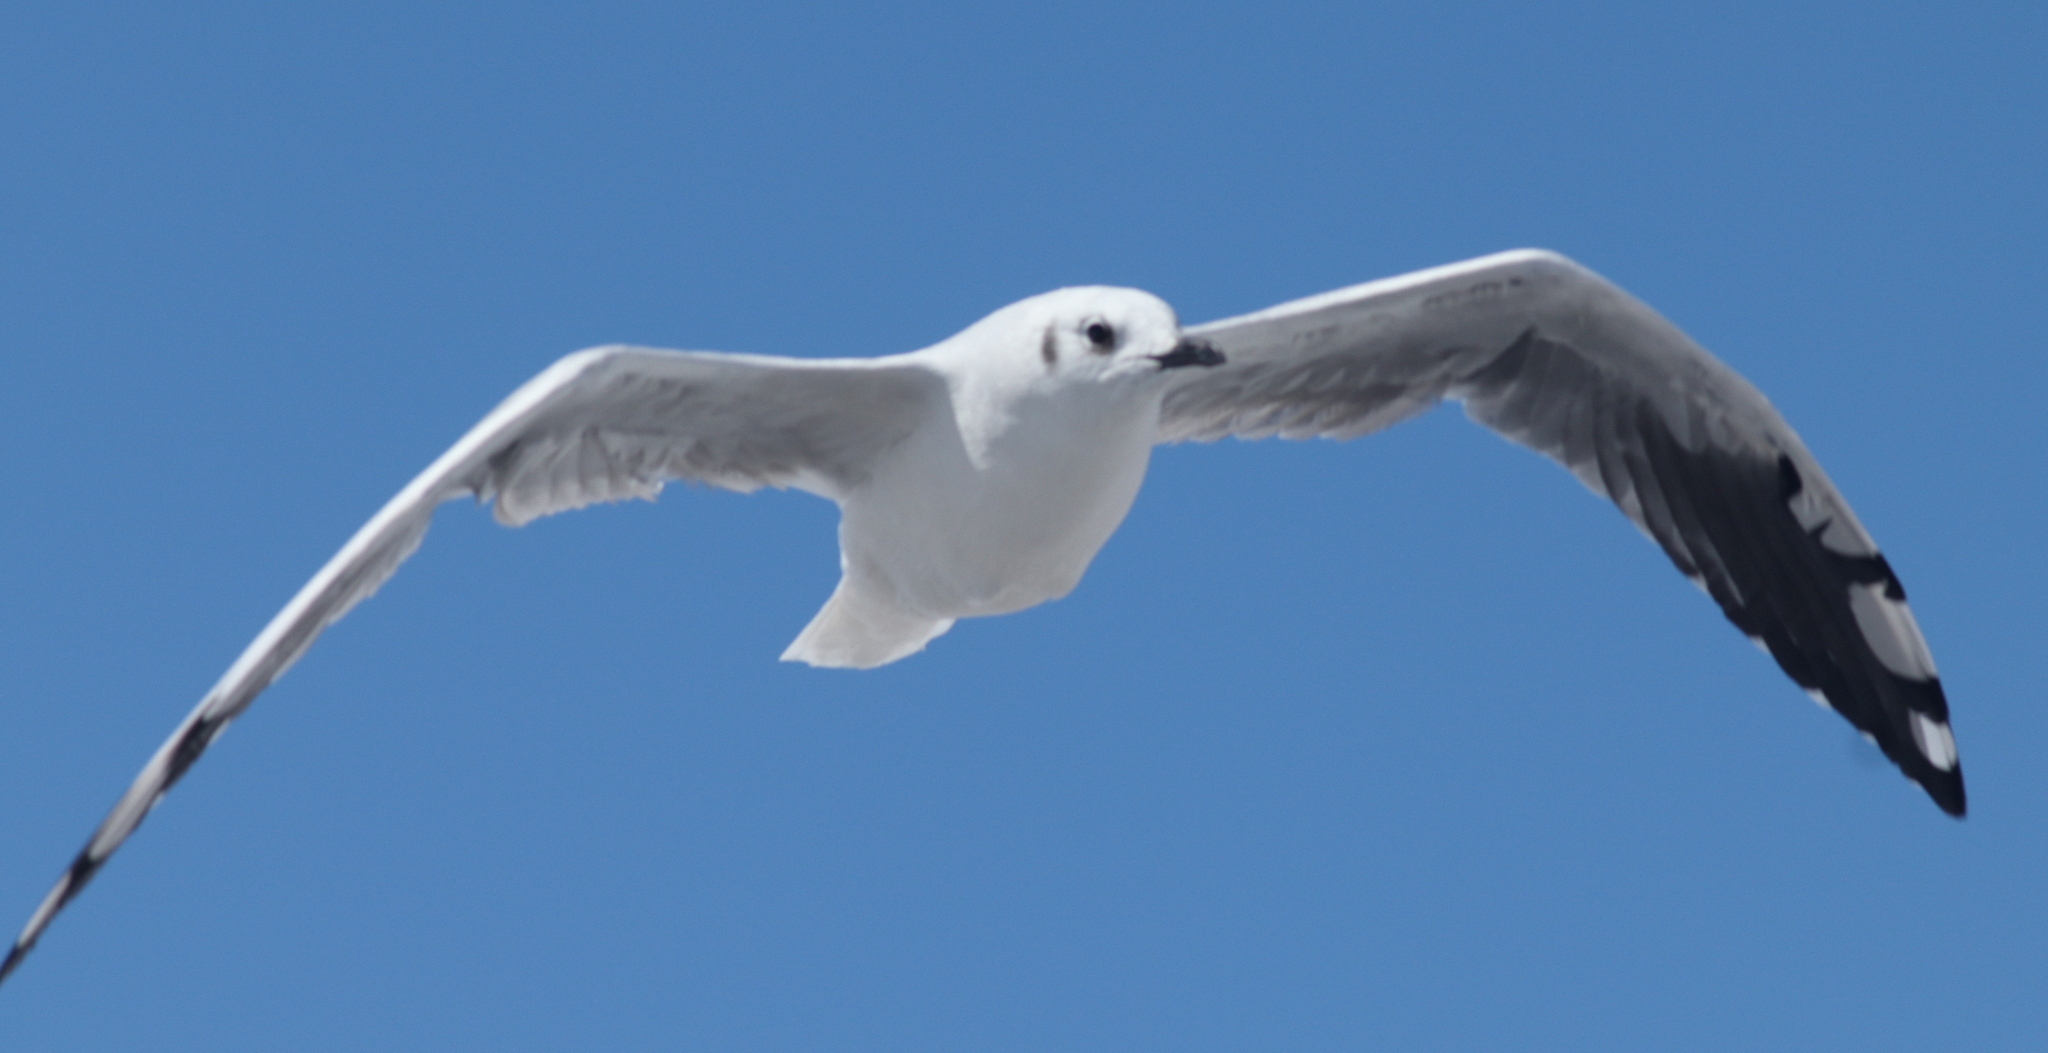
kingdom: Animalia
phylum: Chordata
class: Aves
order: Charadriiformes
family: Laridae
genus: Chroicocephalus
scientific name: Chroicocephalus serranus
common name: Andean gull
